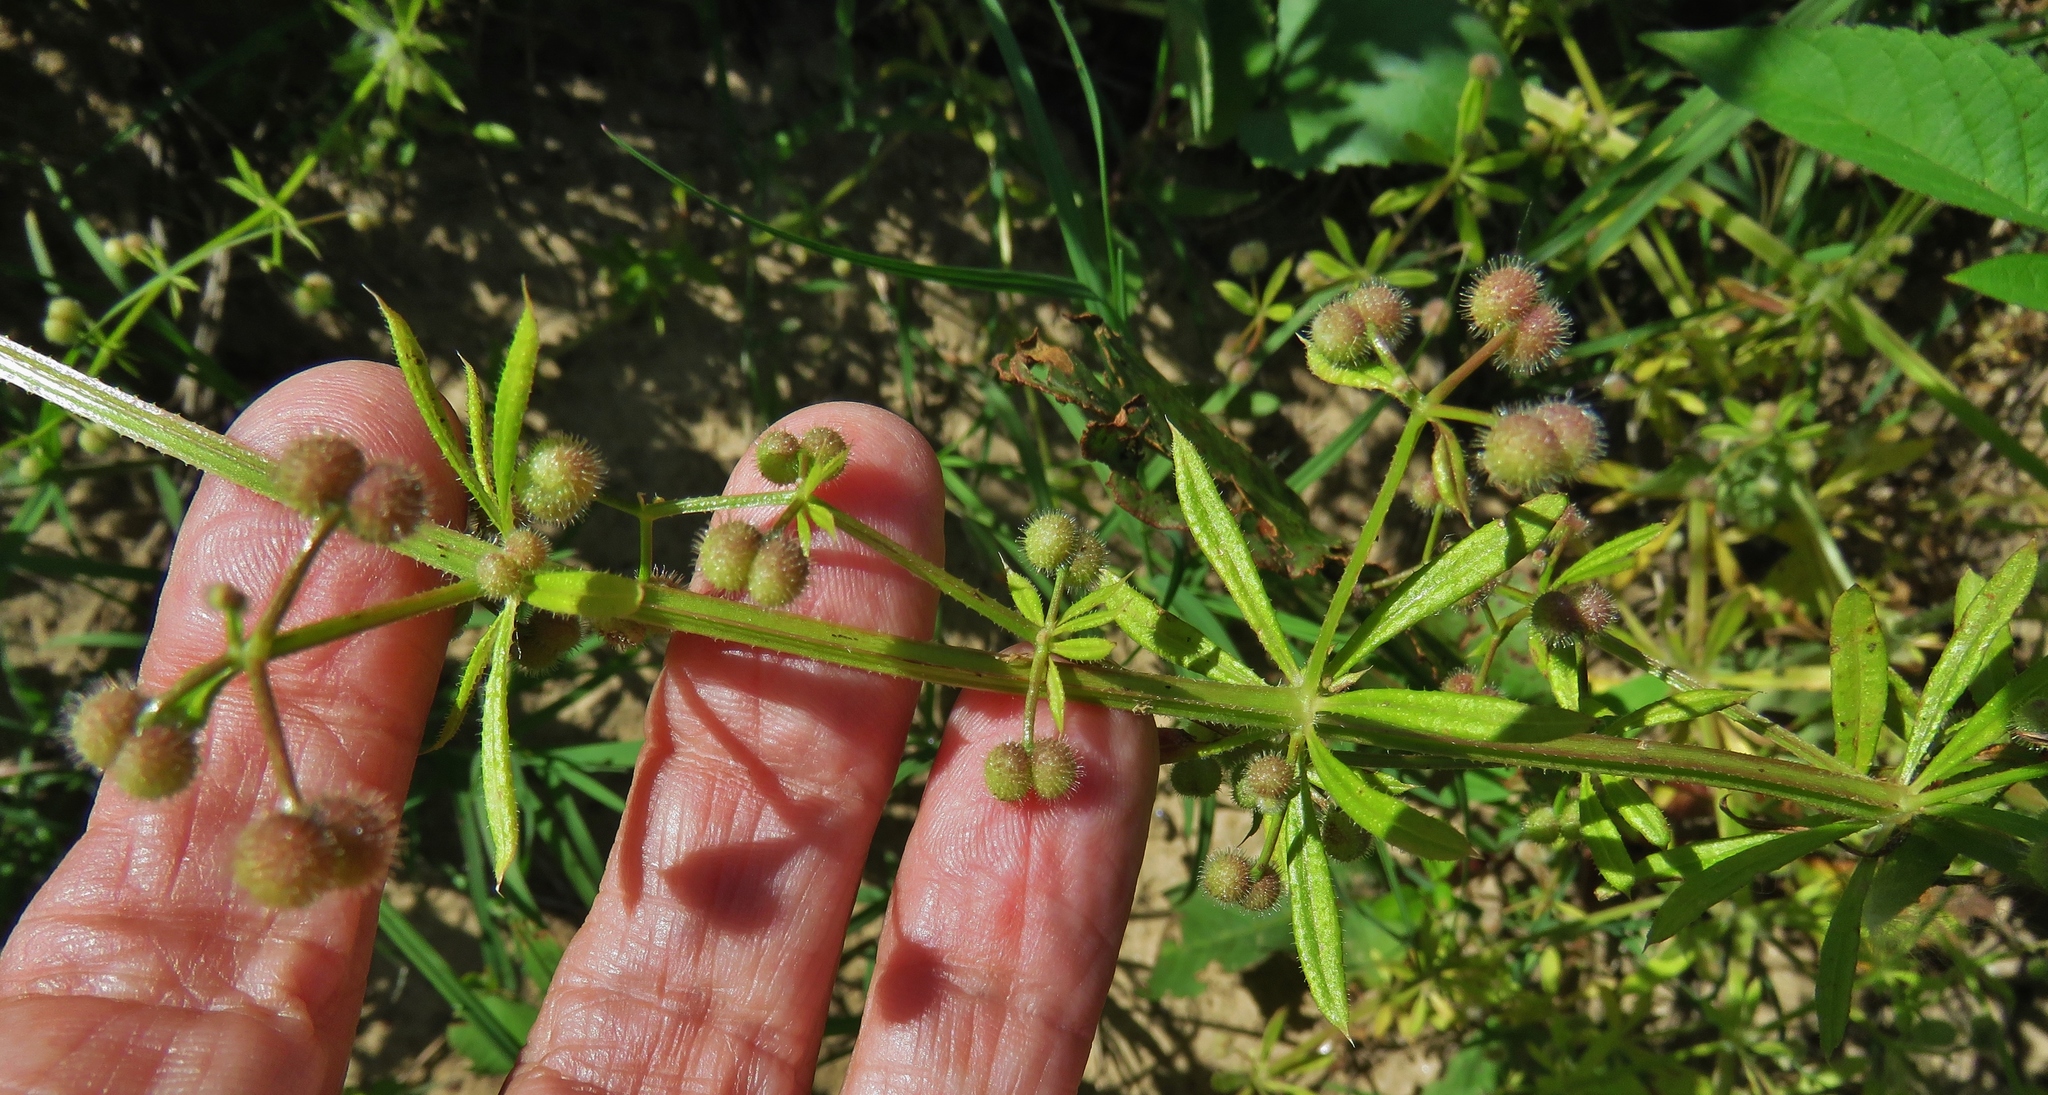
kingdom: Plantae
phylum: Tracheophyta
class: Magnoliopsida
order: Gentianales
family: Rubiaceae
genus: Galium
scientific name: Galium aparine
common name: Cleavers
